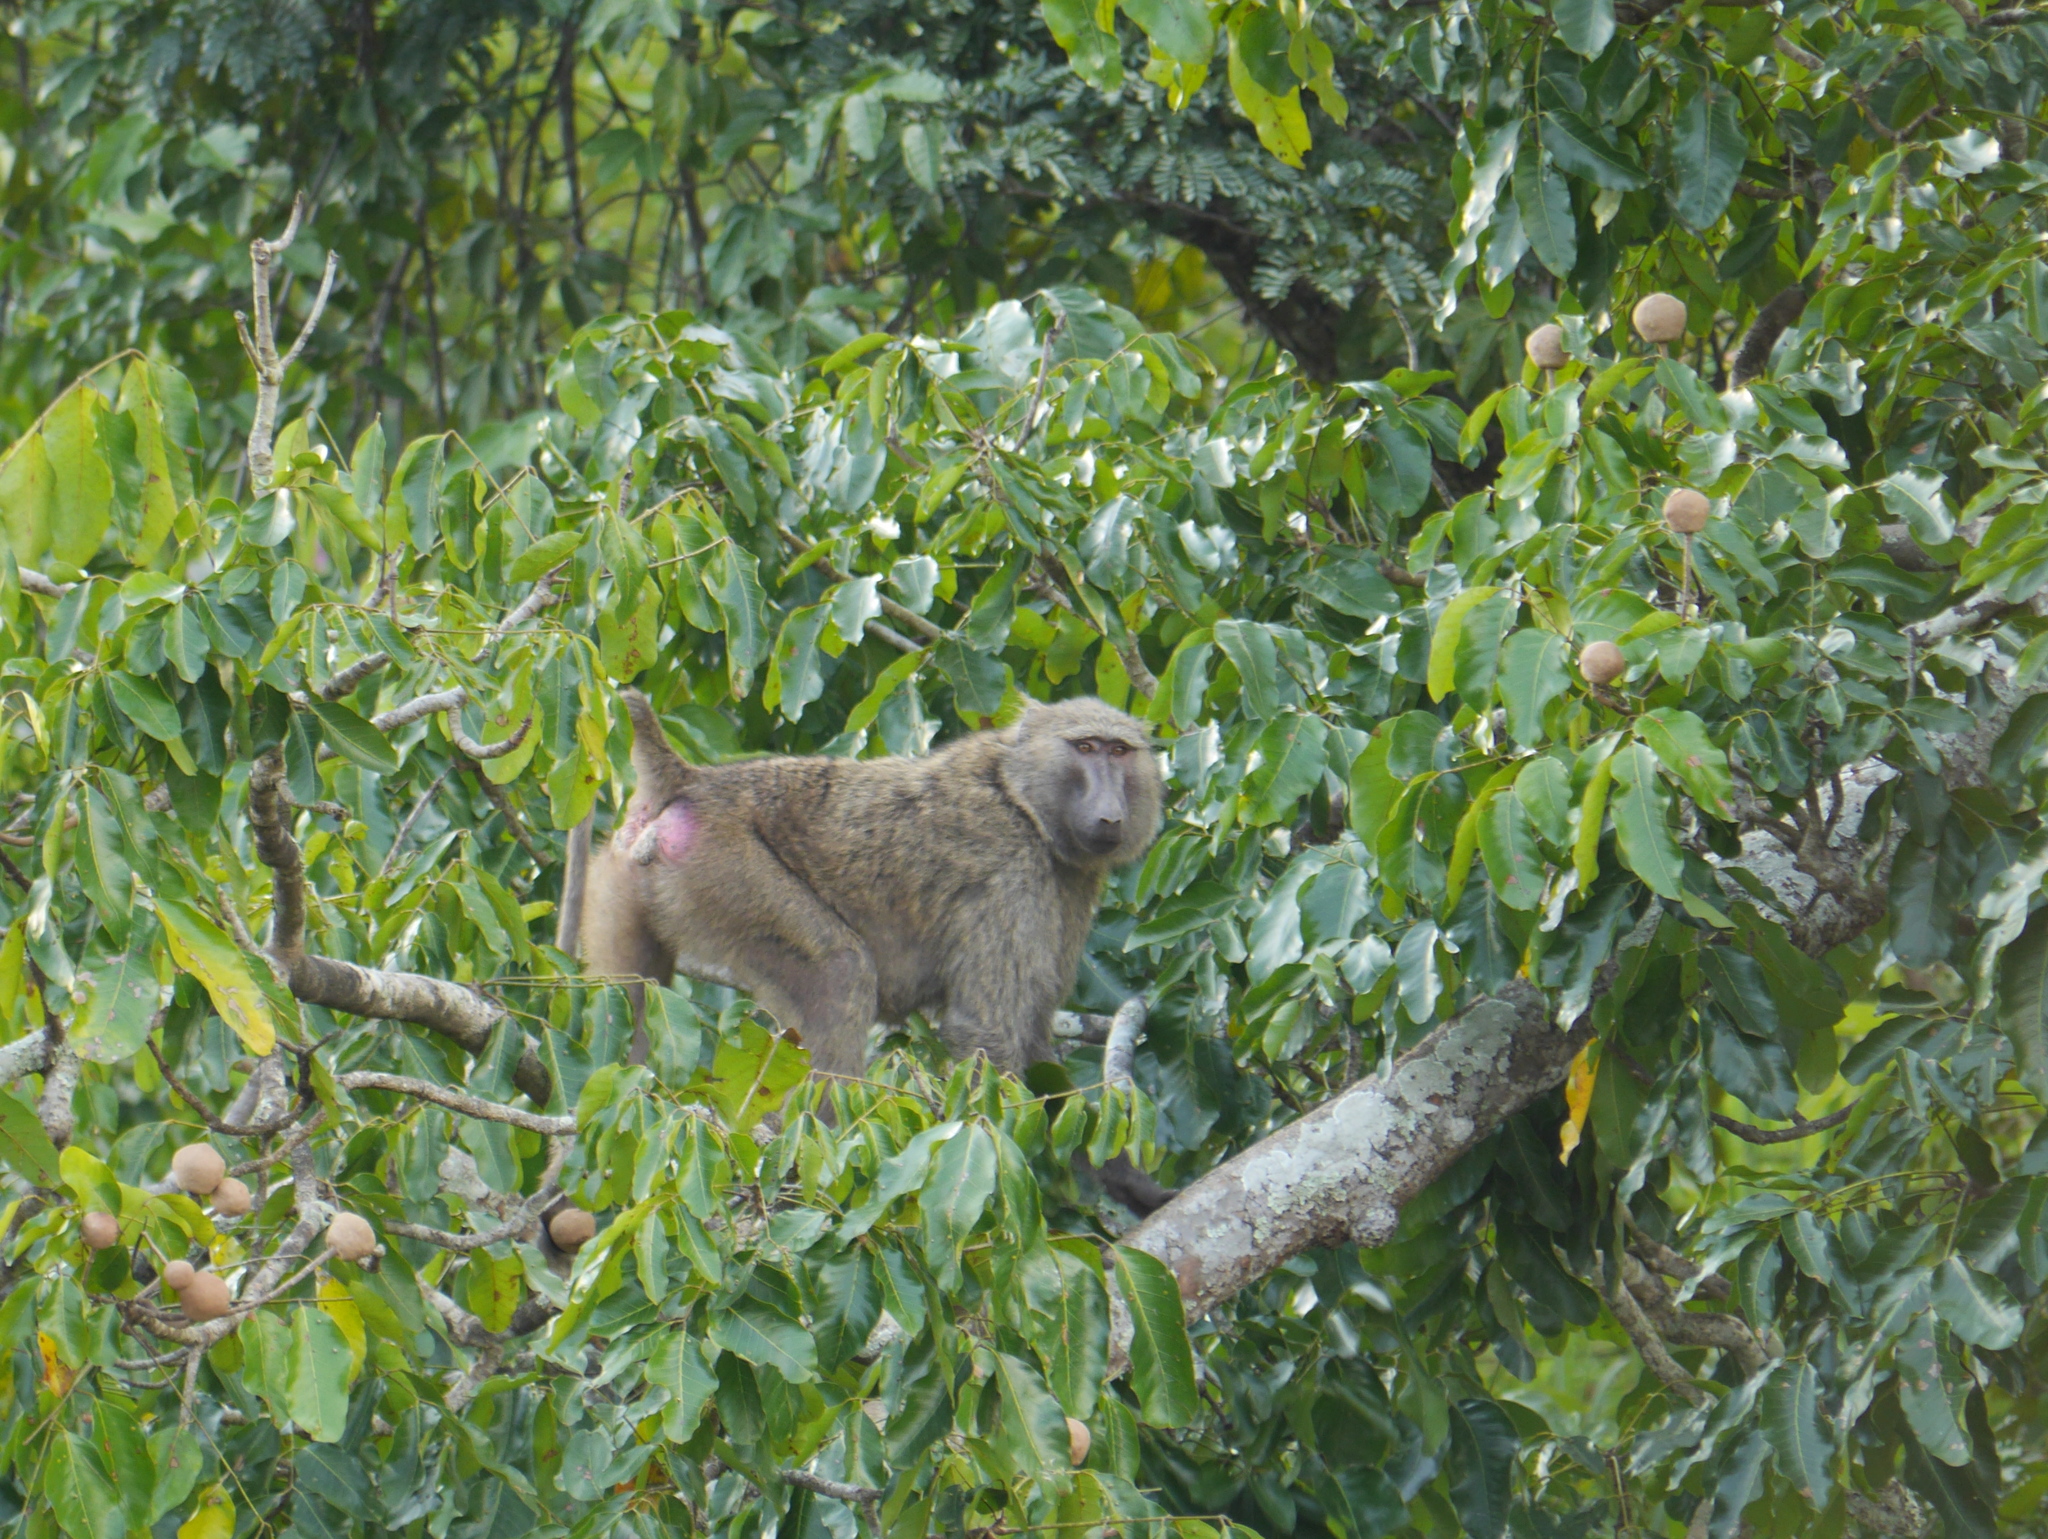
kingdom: Animalia
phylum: Chordata
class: Mammalia
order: Primates
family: Cercopithecidae
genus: Papio
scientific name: Papio anubis
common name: Olive baboon
